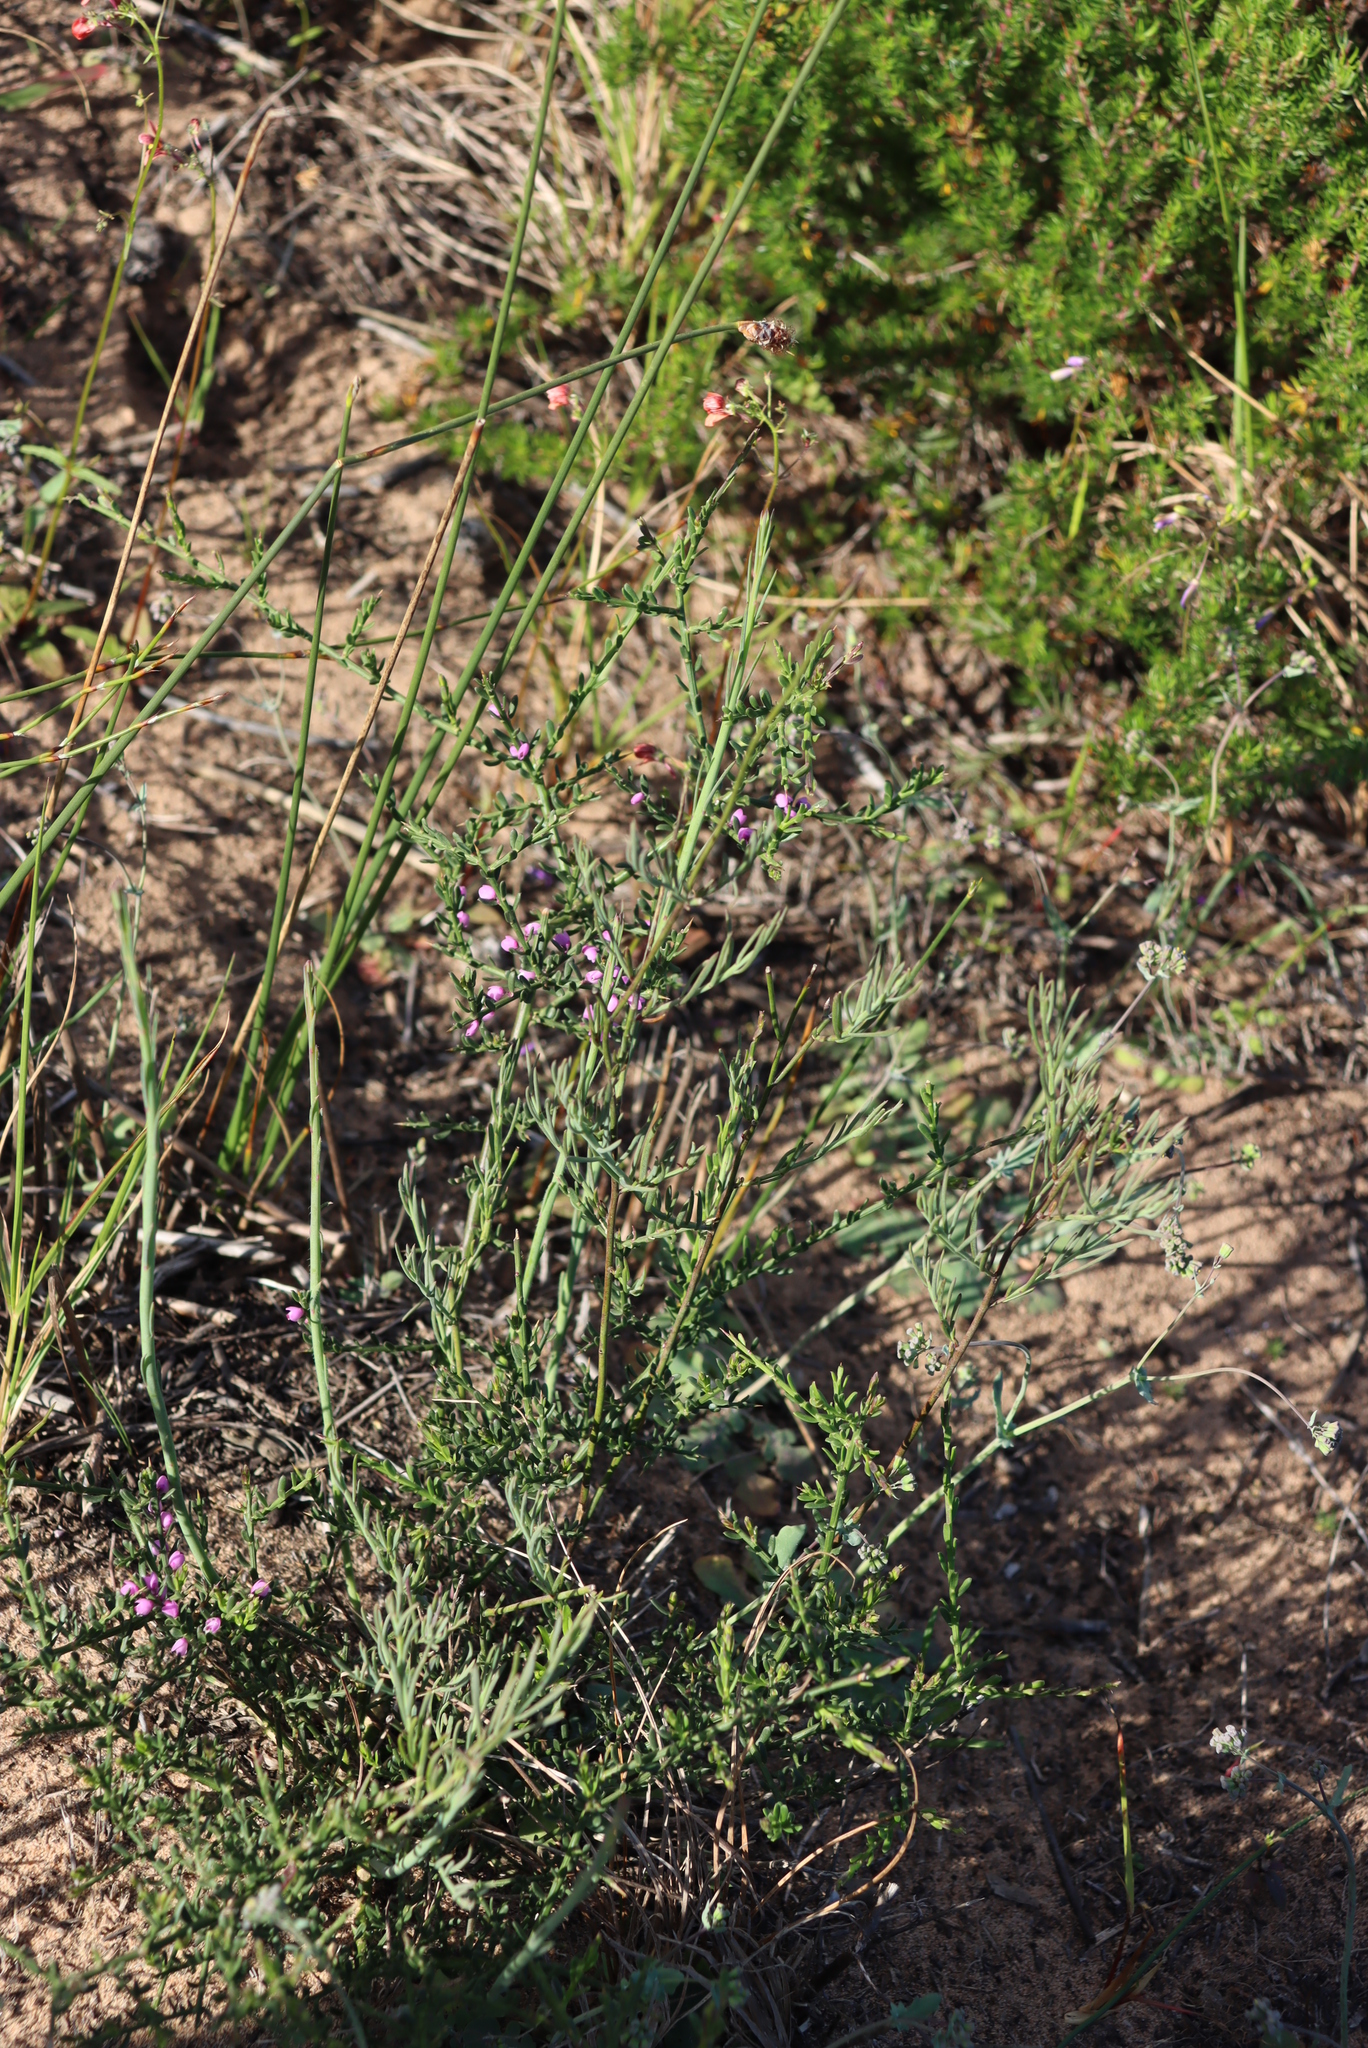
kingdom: Plantae
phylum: Tracheophyta
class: Magnoliopsida
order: Fabales
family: Polygalaceae
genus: Muraltia
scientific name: Muraltia spinosa
